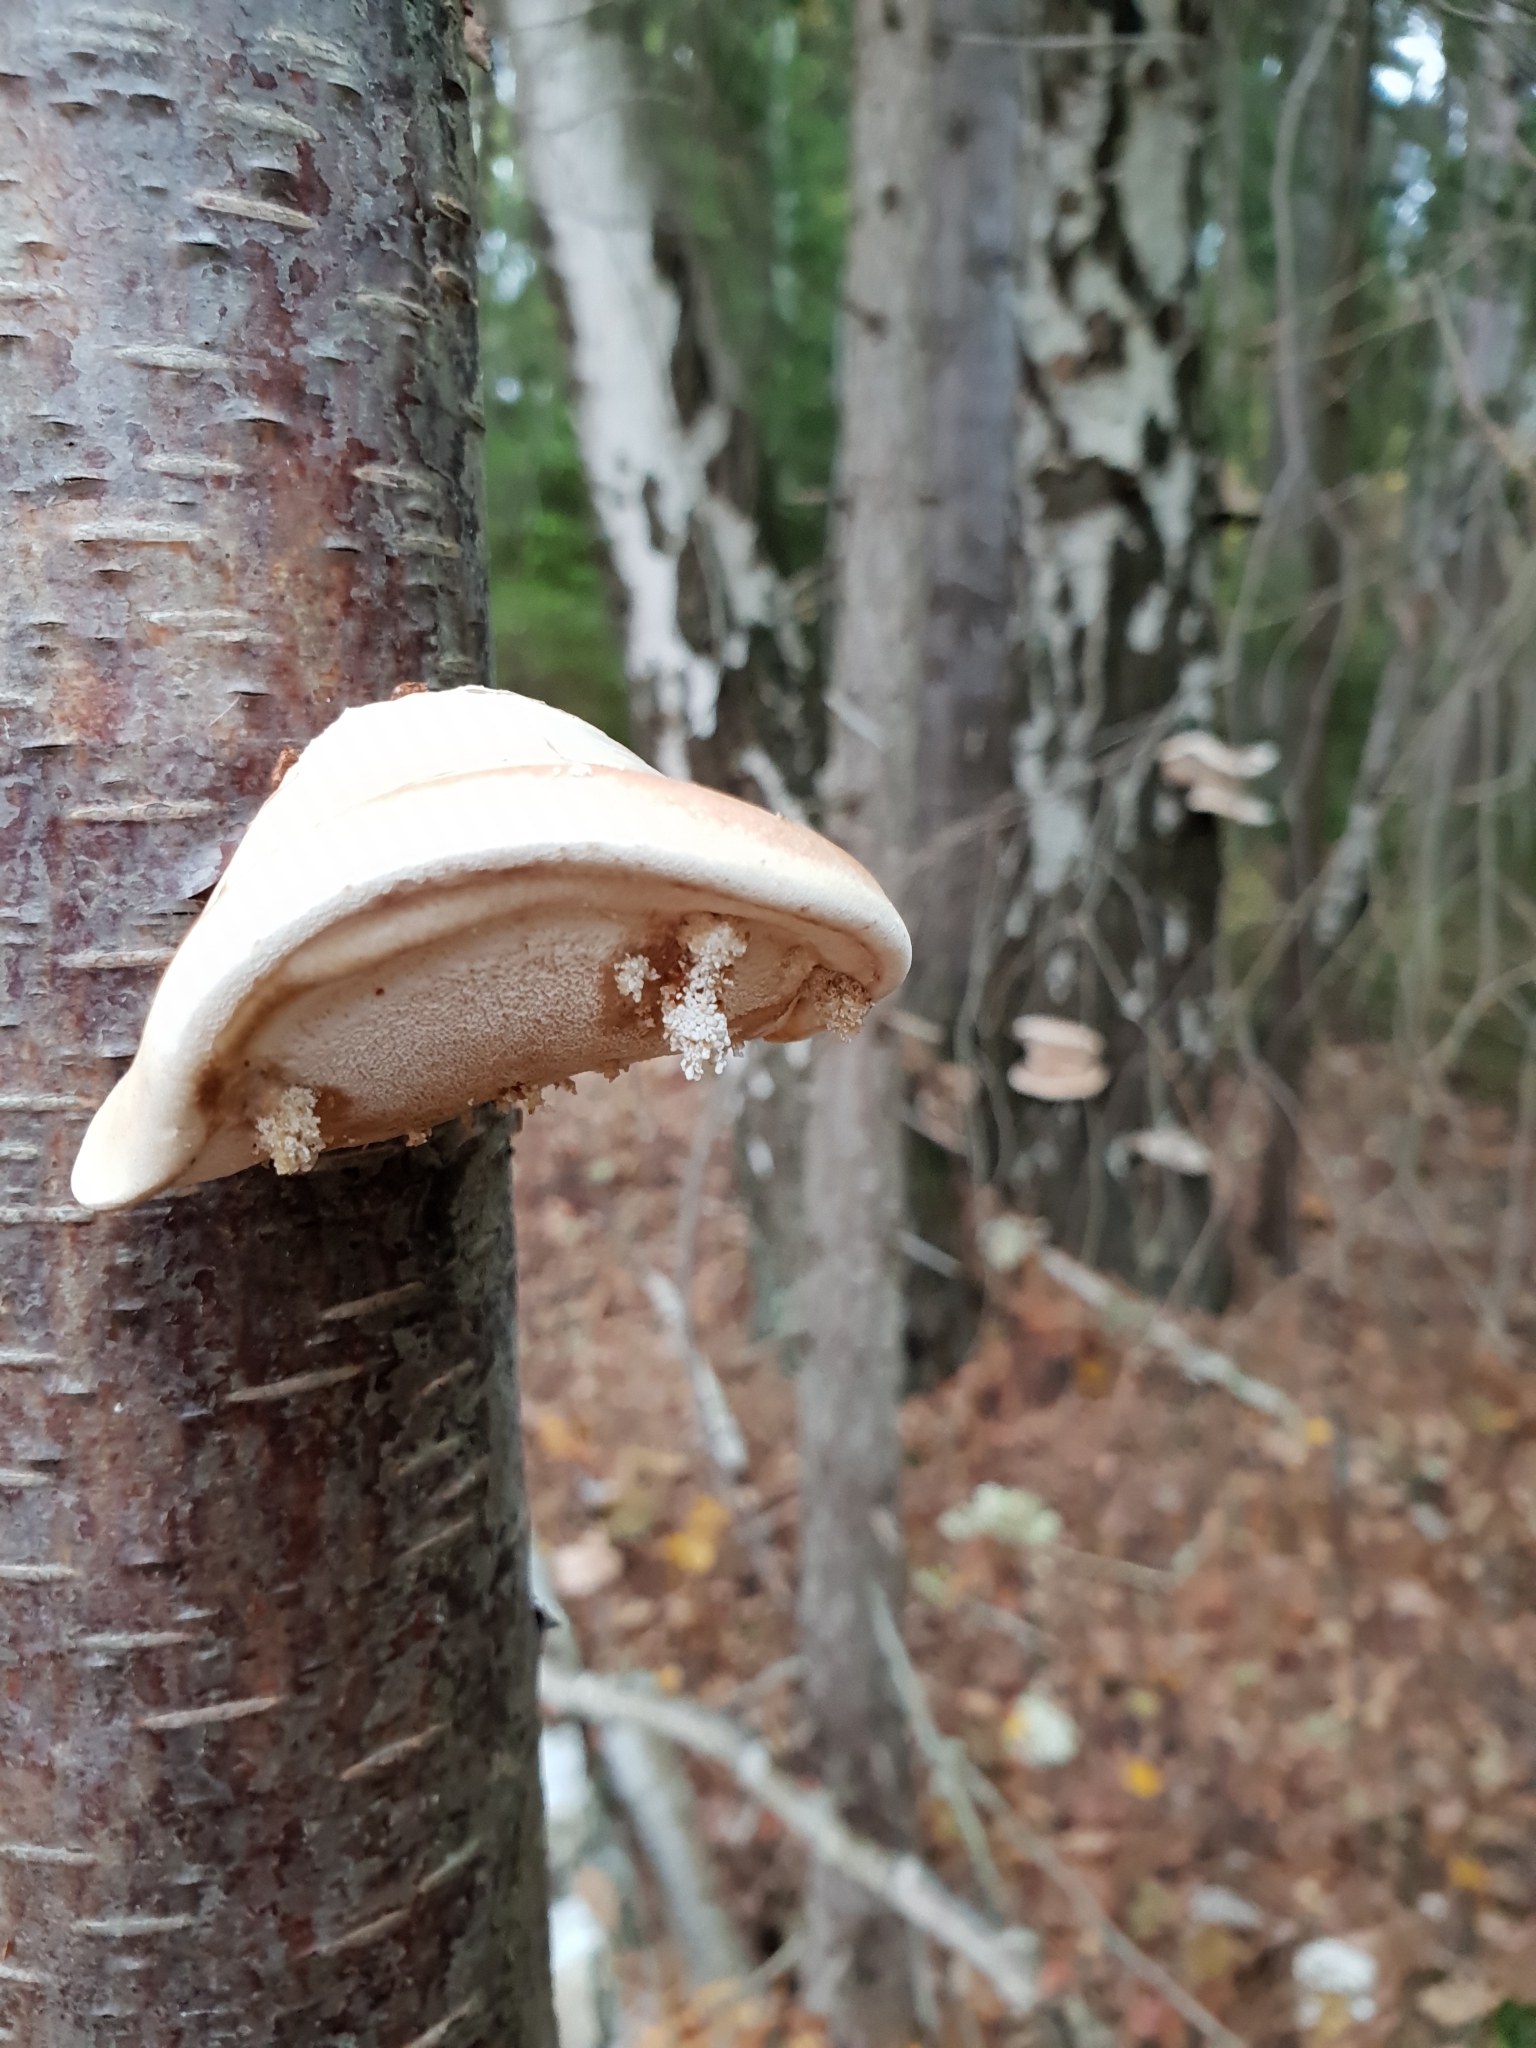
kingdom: Fungi
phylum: Basidiomycota
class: Agaricomycetes
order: Polyporales
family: Fomitopsidaceae
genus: Fomitopsis
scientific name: Fomitopsis betulina
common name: Birch polypore
